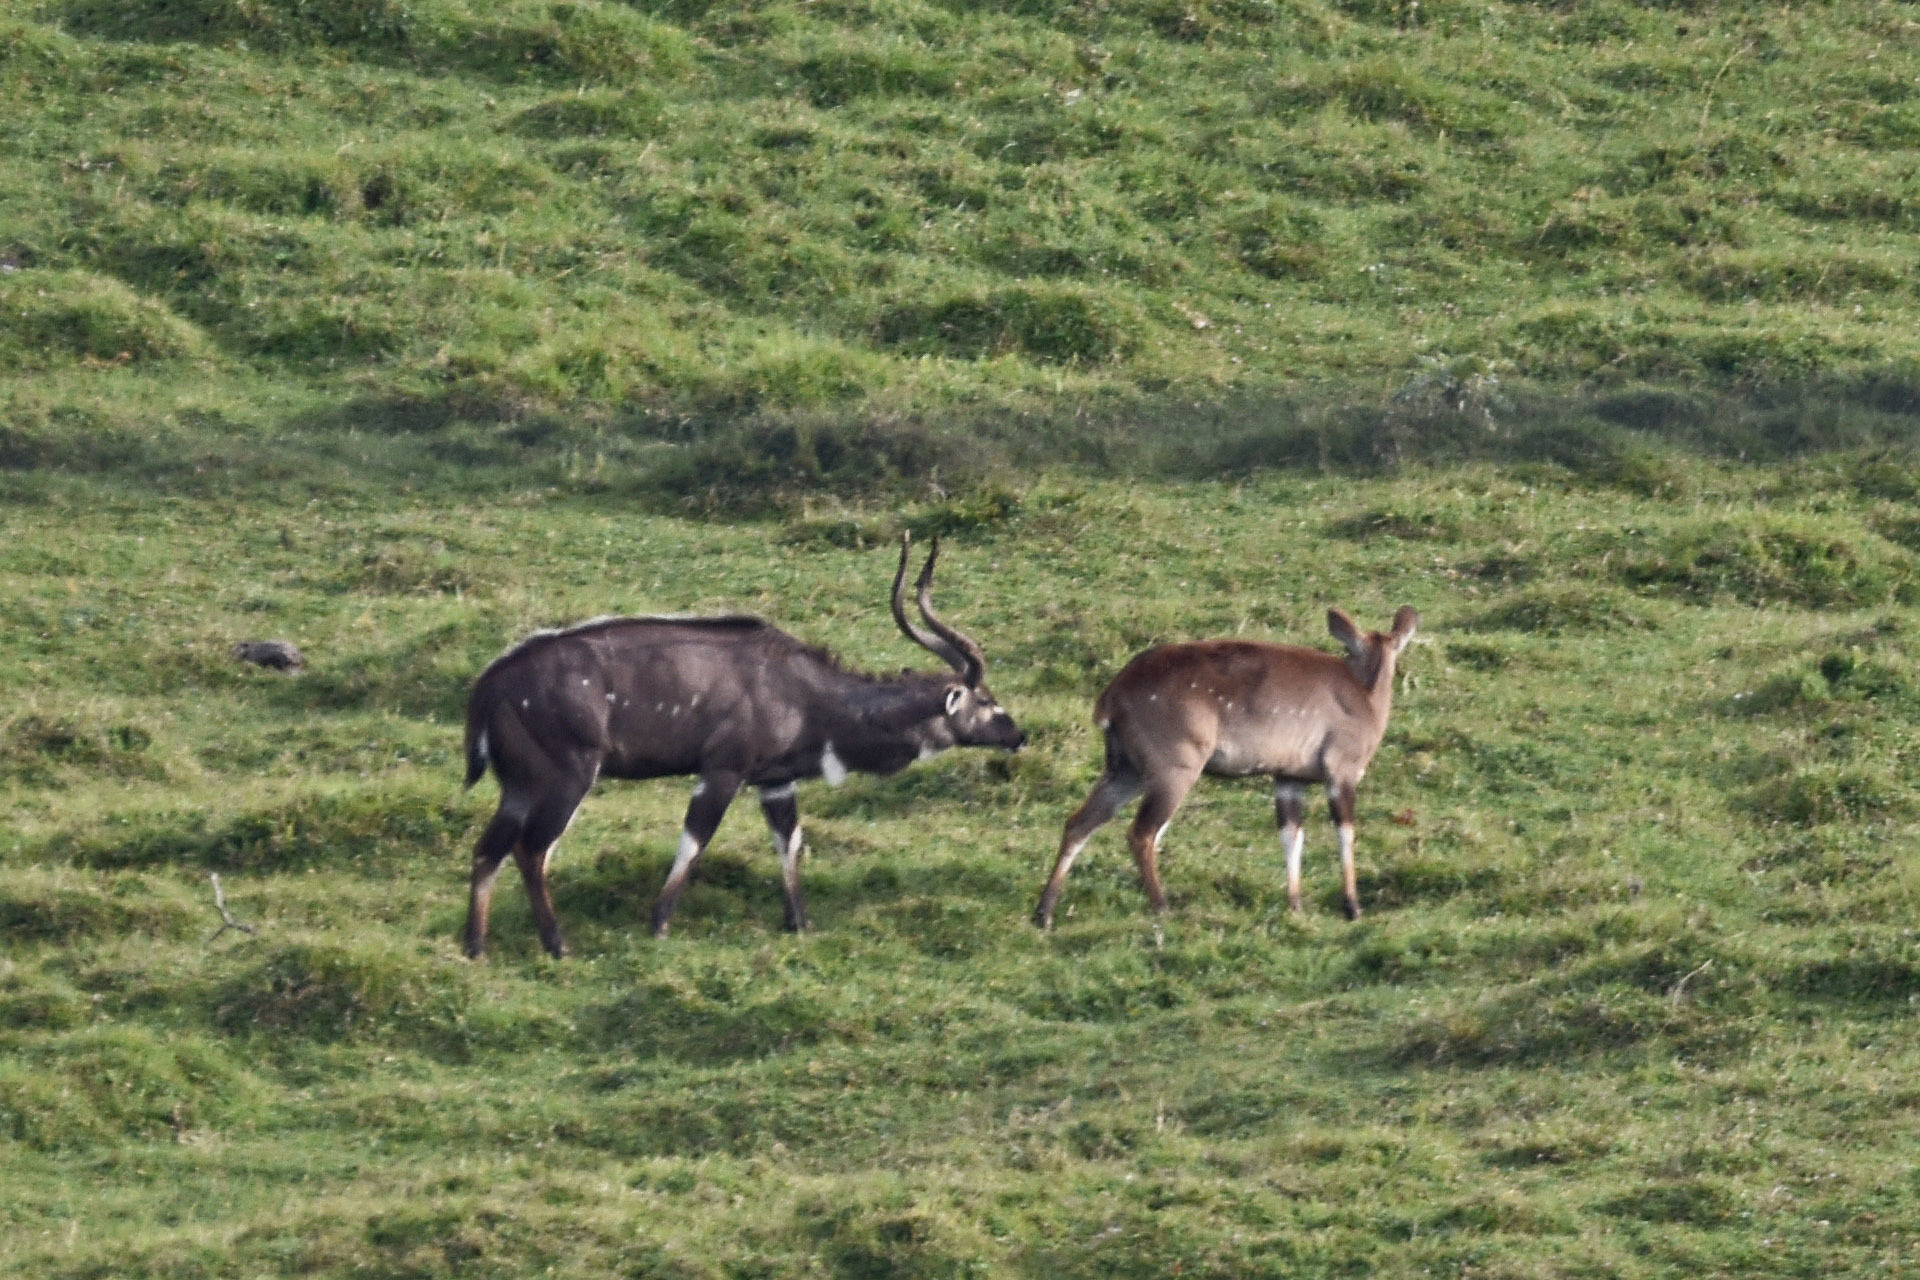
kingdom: Animalia
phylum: Chordata
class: Mammalia
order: Artiodactyla
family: Bovidae
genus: Tragelaphus
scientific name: Tragelaphus buxtoni
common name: Mountain nyala
